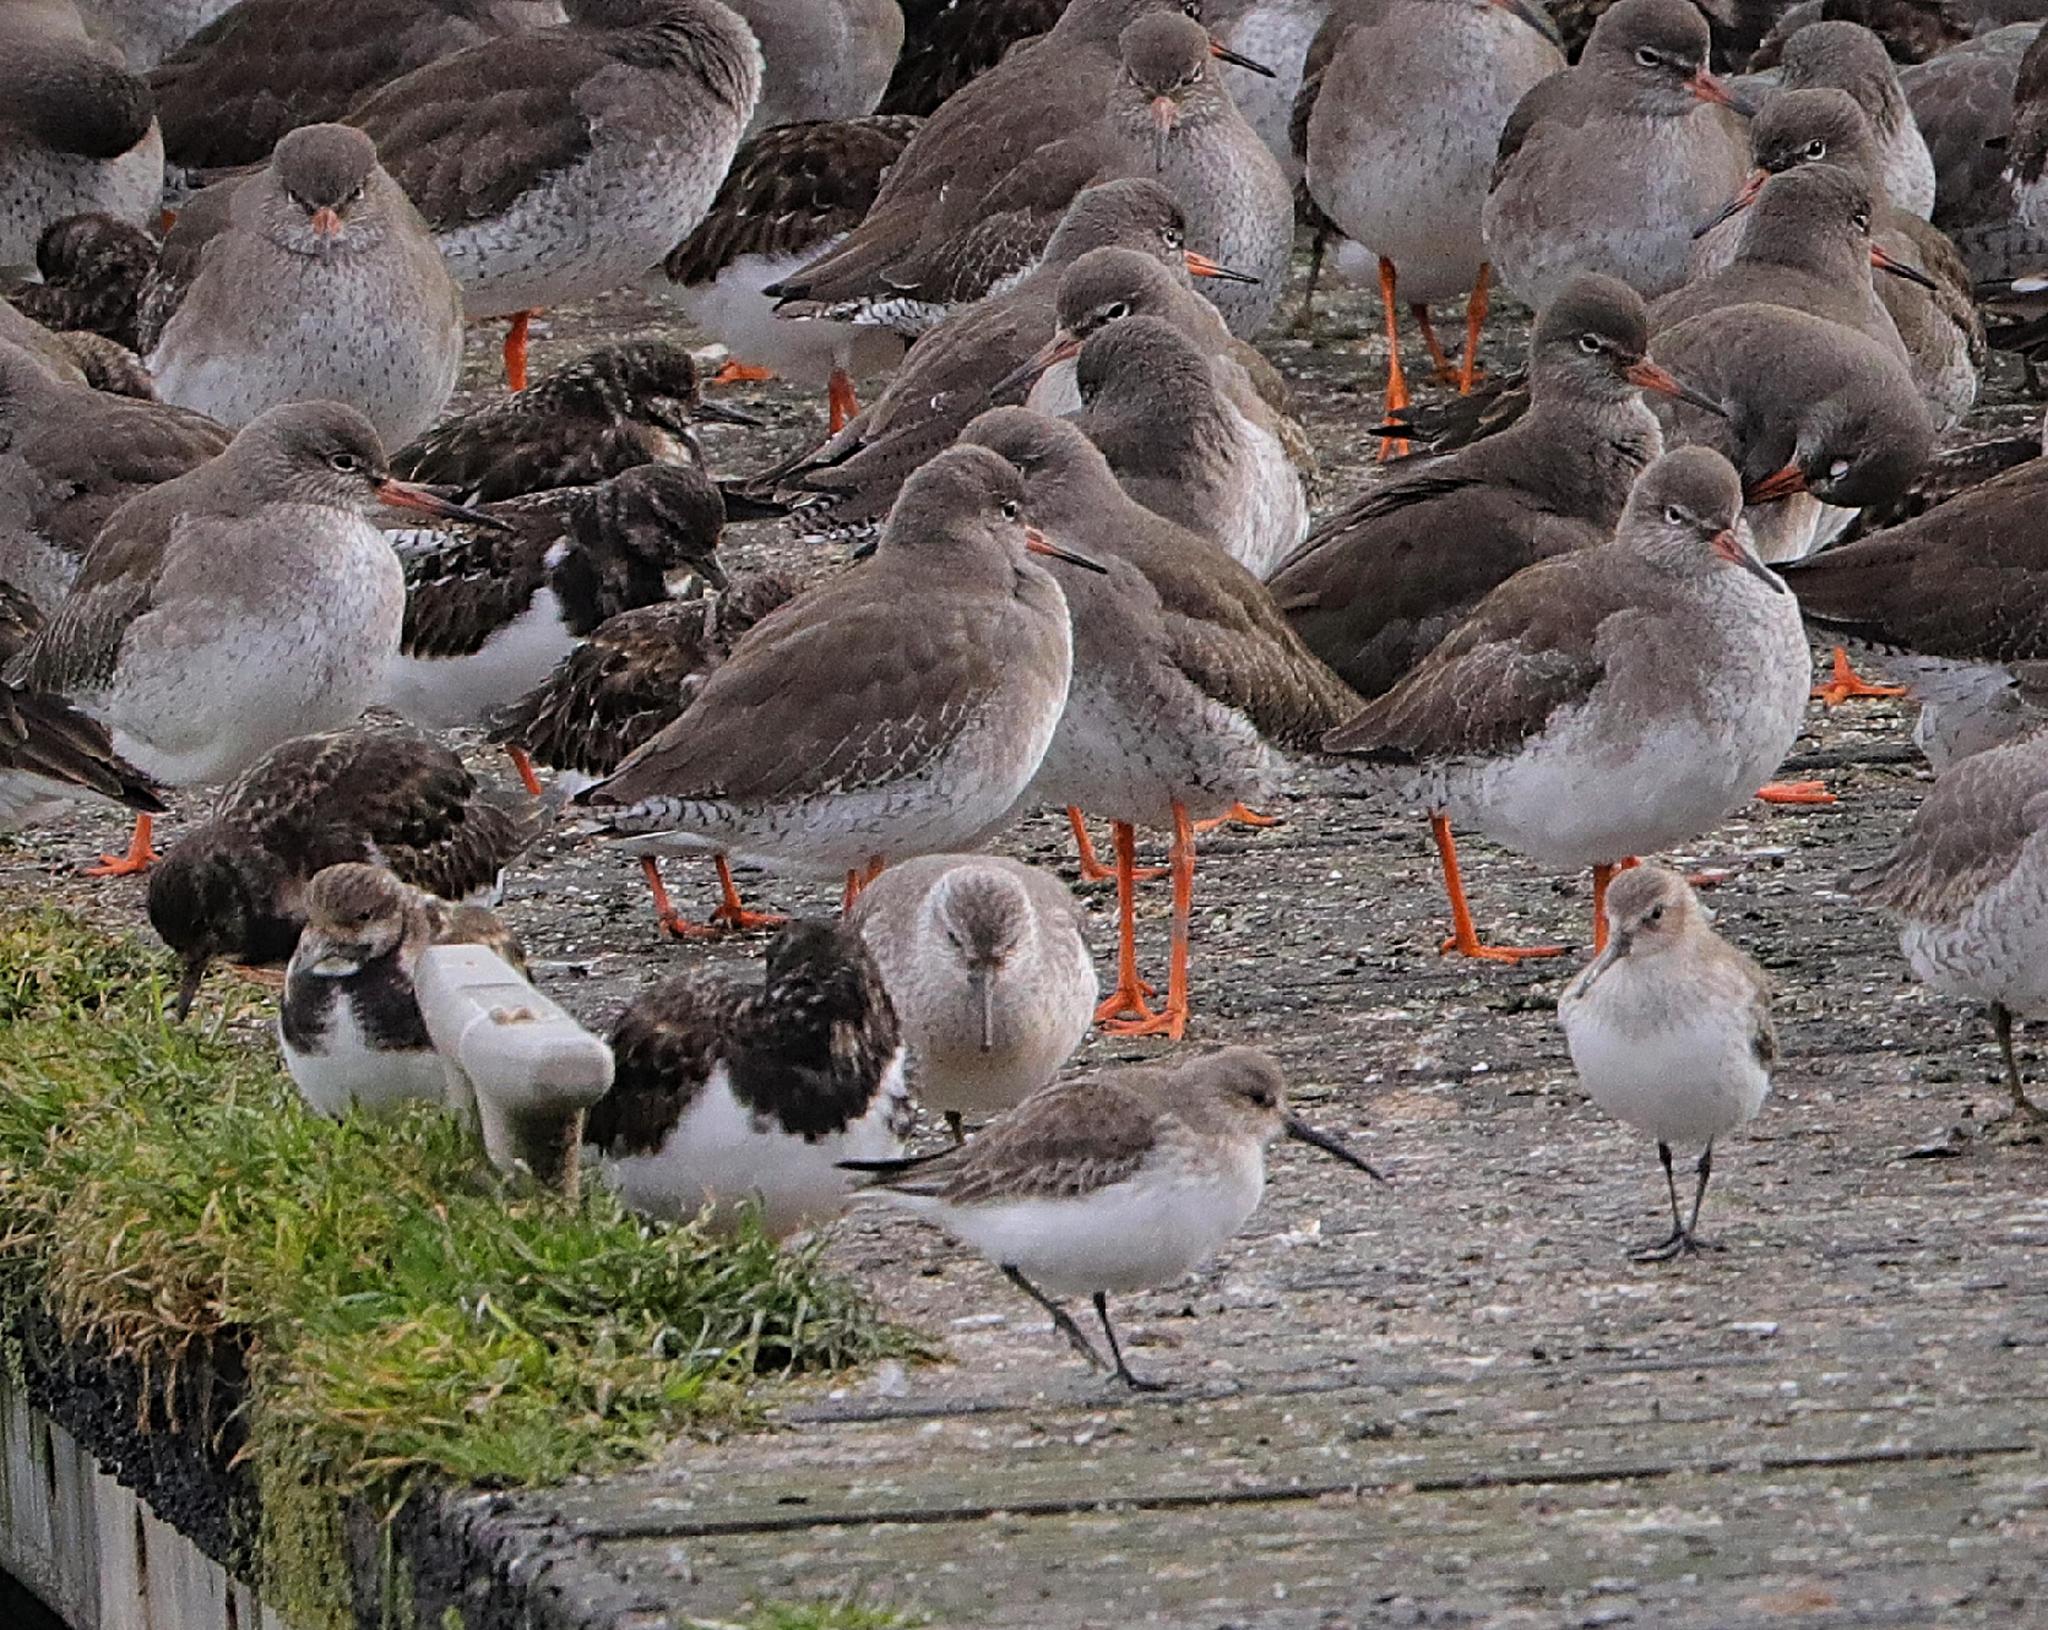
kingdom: Animalia
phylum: Chordata
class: Aves
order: Charadriiformes
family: Scolopacidae
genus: Calidris
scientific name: Calidris alpina
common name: Dunlin
